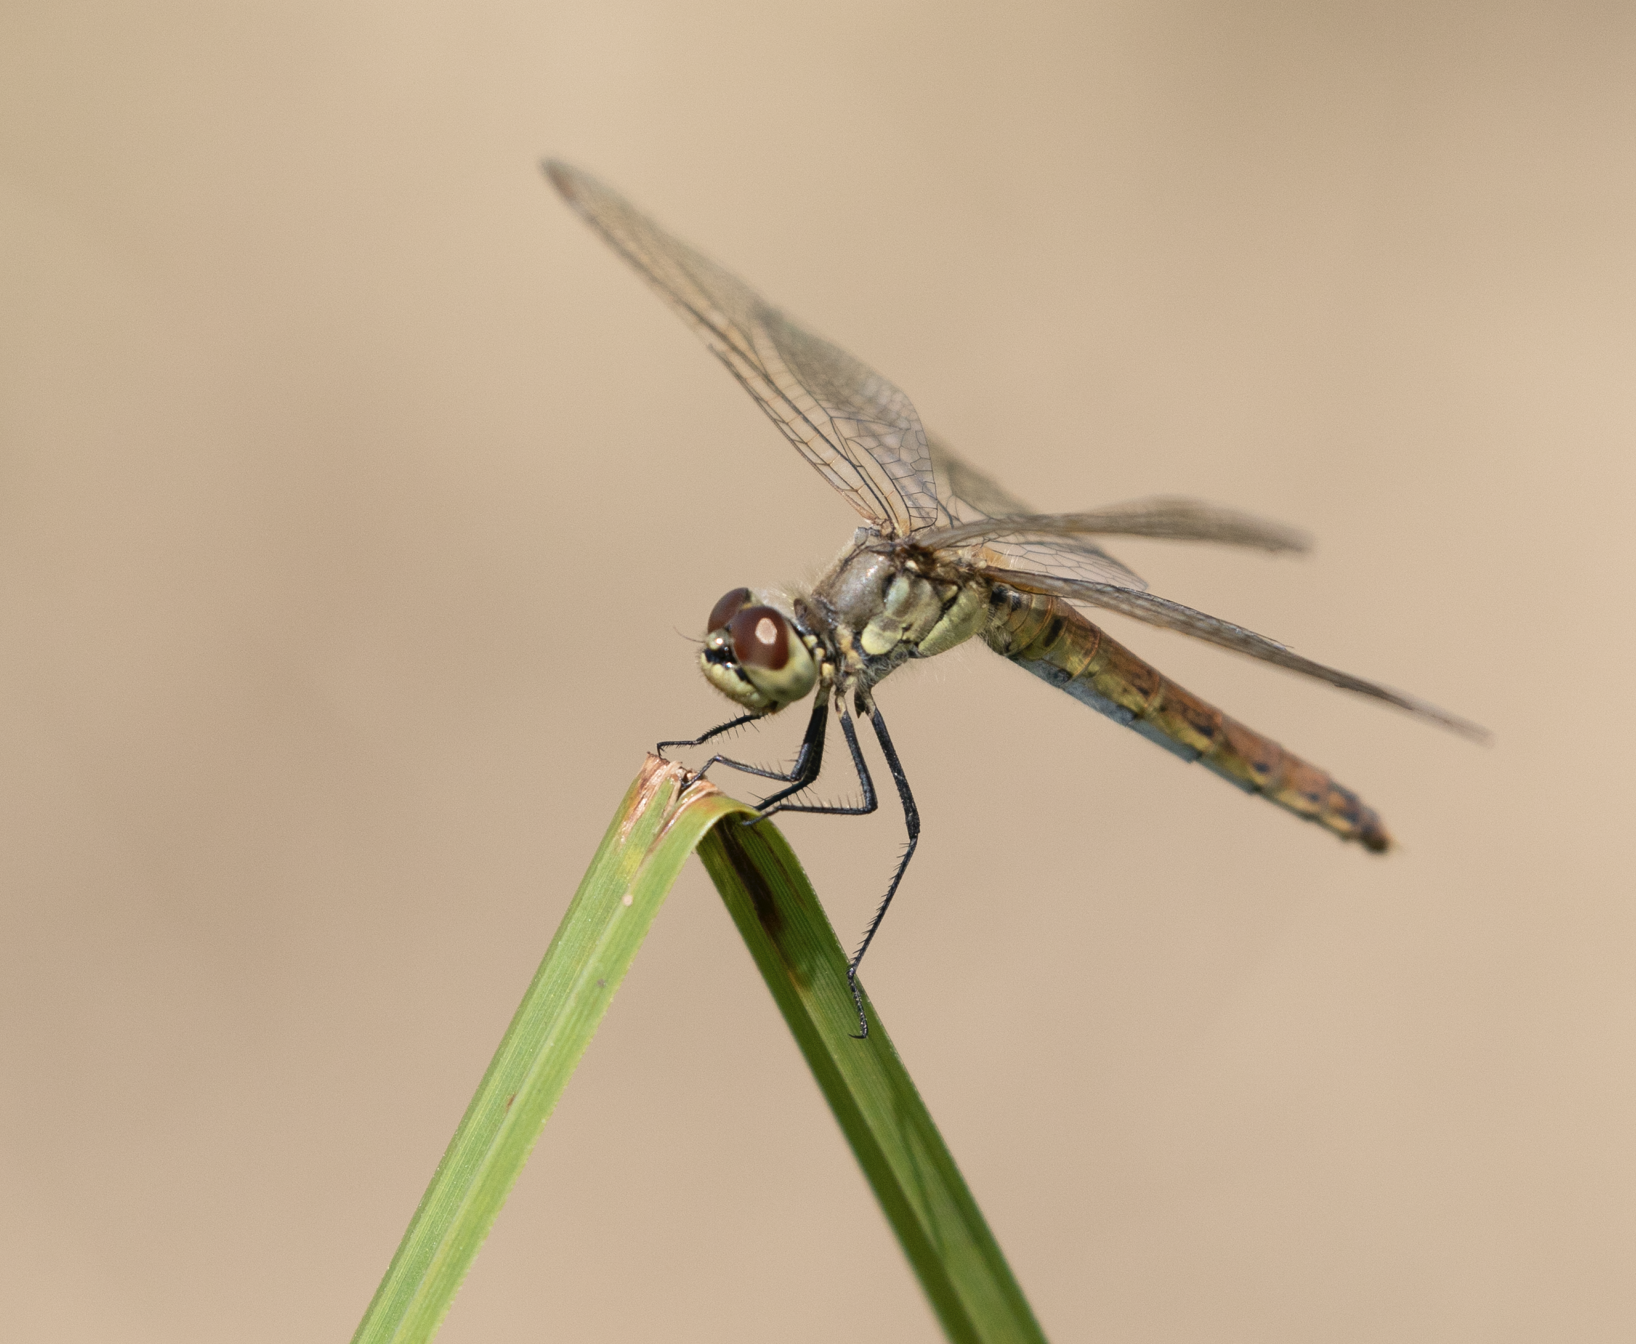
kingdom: Animalia
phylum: Arthropoda
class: Insecta
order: Odonata
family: Libellulidae
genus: Sympetrum
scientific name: Sympetrum sanguineum
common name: Ruddy darter
